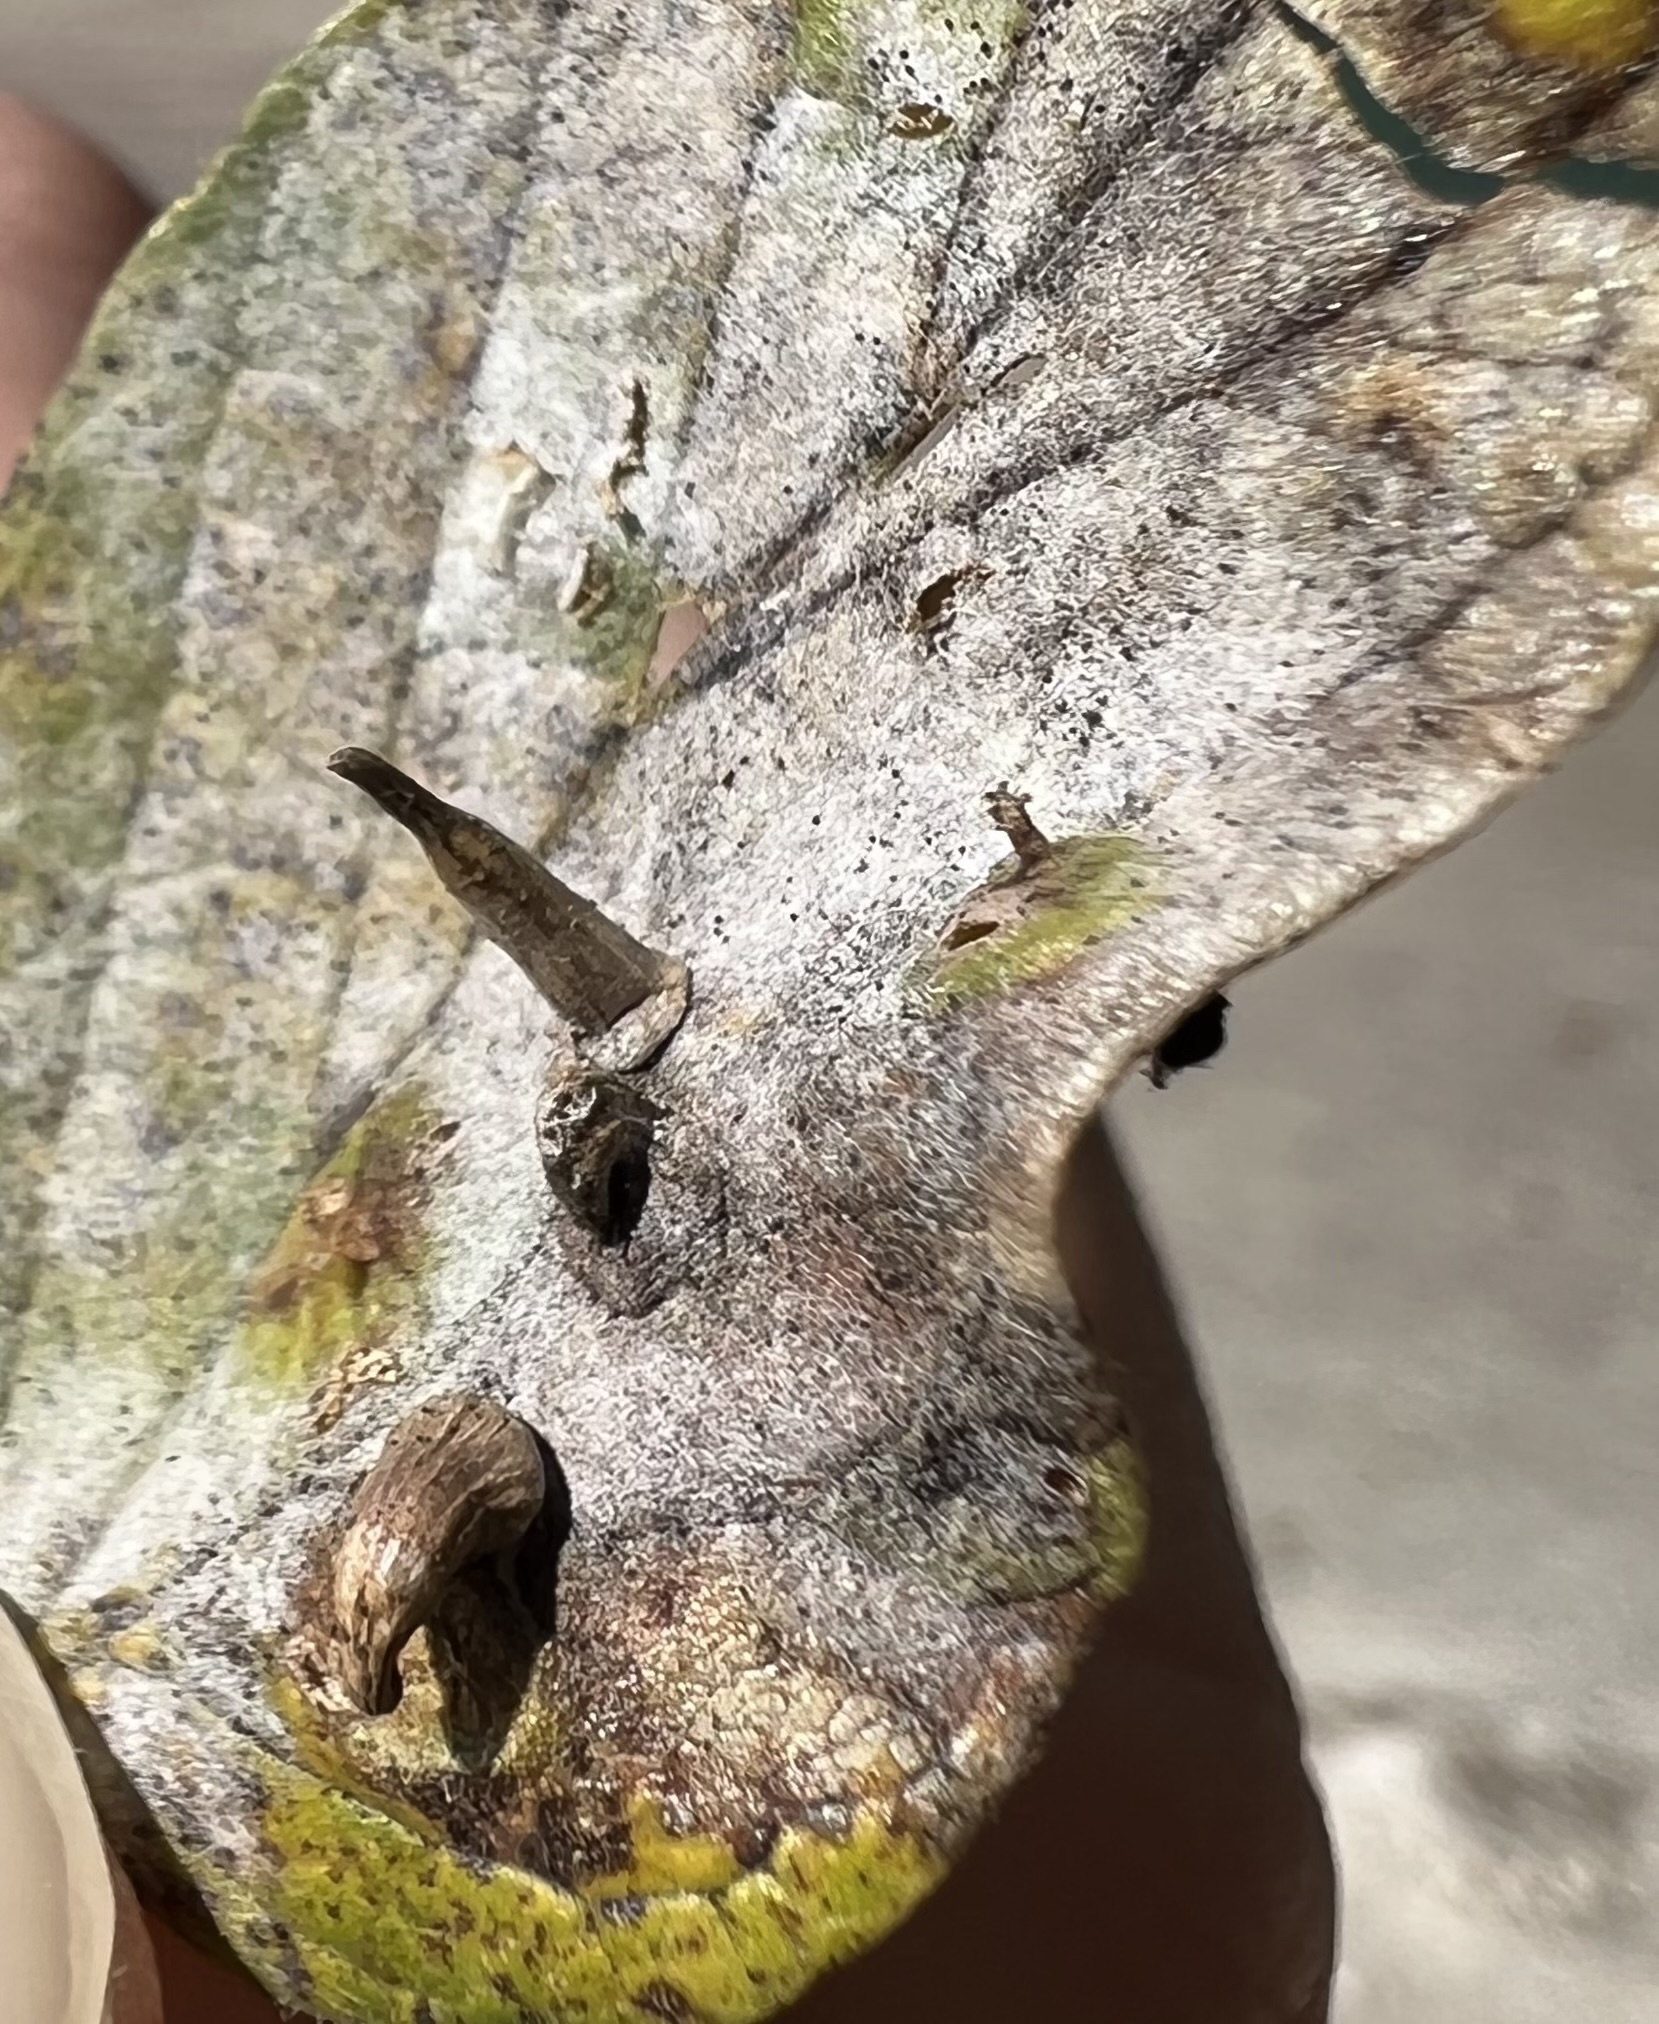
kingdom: Animalia
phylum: Arthropoda
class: Insecta
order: Diptera
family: Cecidomyiidae
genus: Celticecis
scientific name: Celticecis subulata
